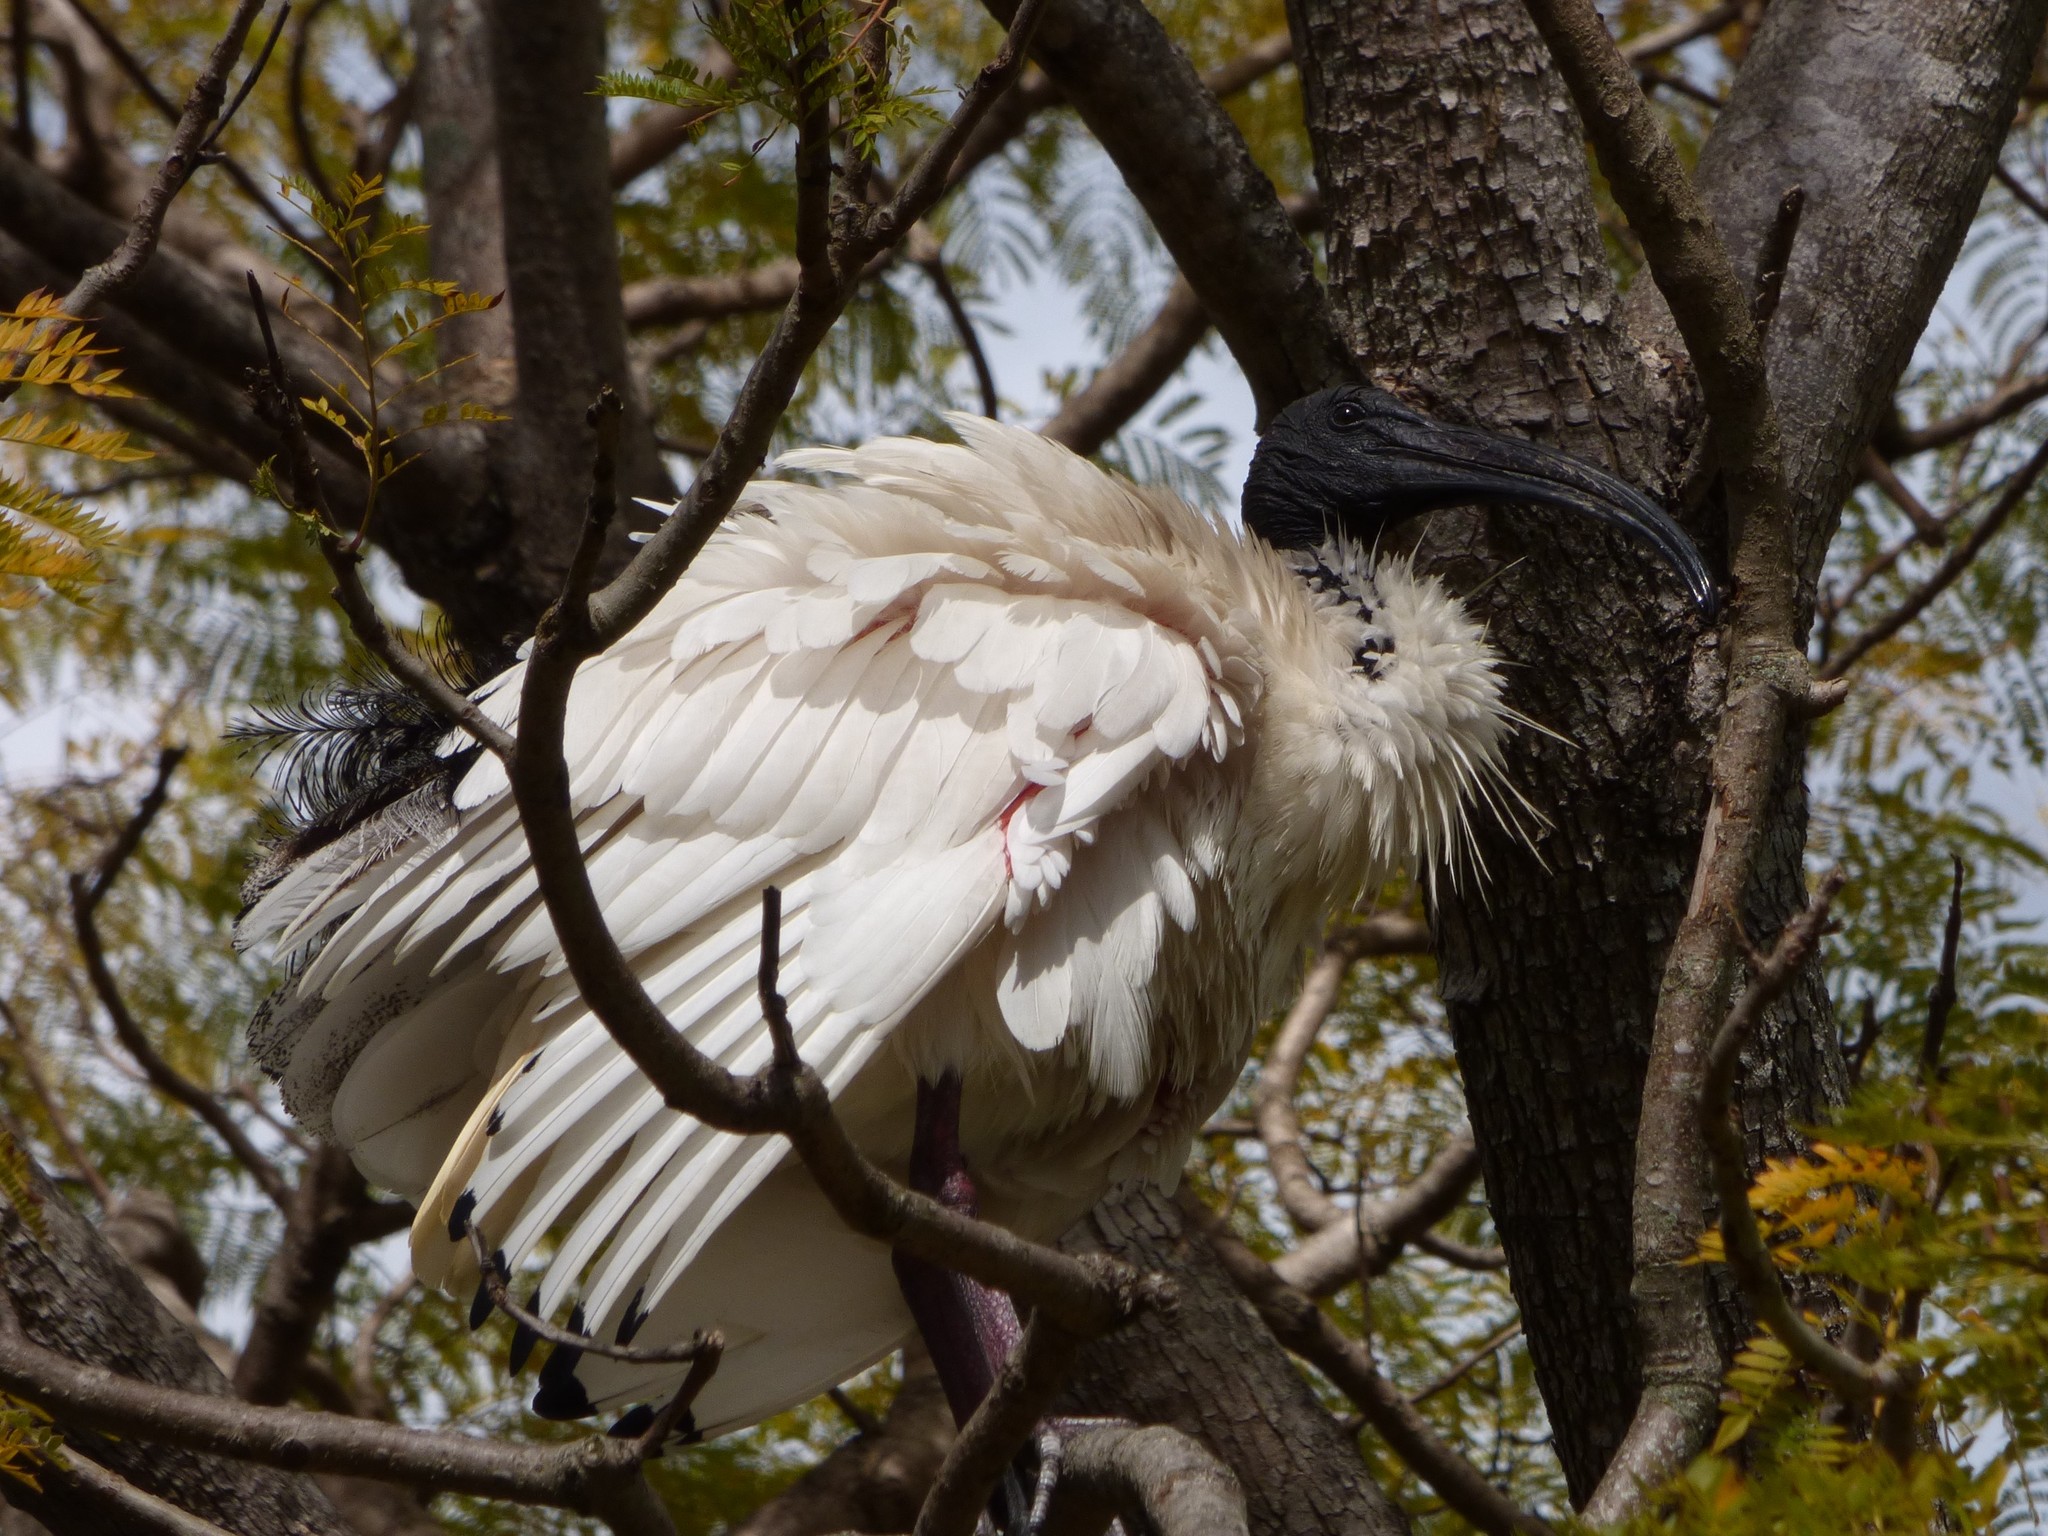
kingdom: Animalia
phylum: Chordata
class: Aves
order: Pelecaniformes
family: Threskiornithidae
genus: Threskiornis
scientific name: Threskiornis molucca
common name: Australian white ibis
